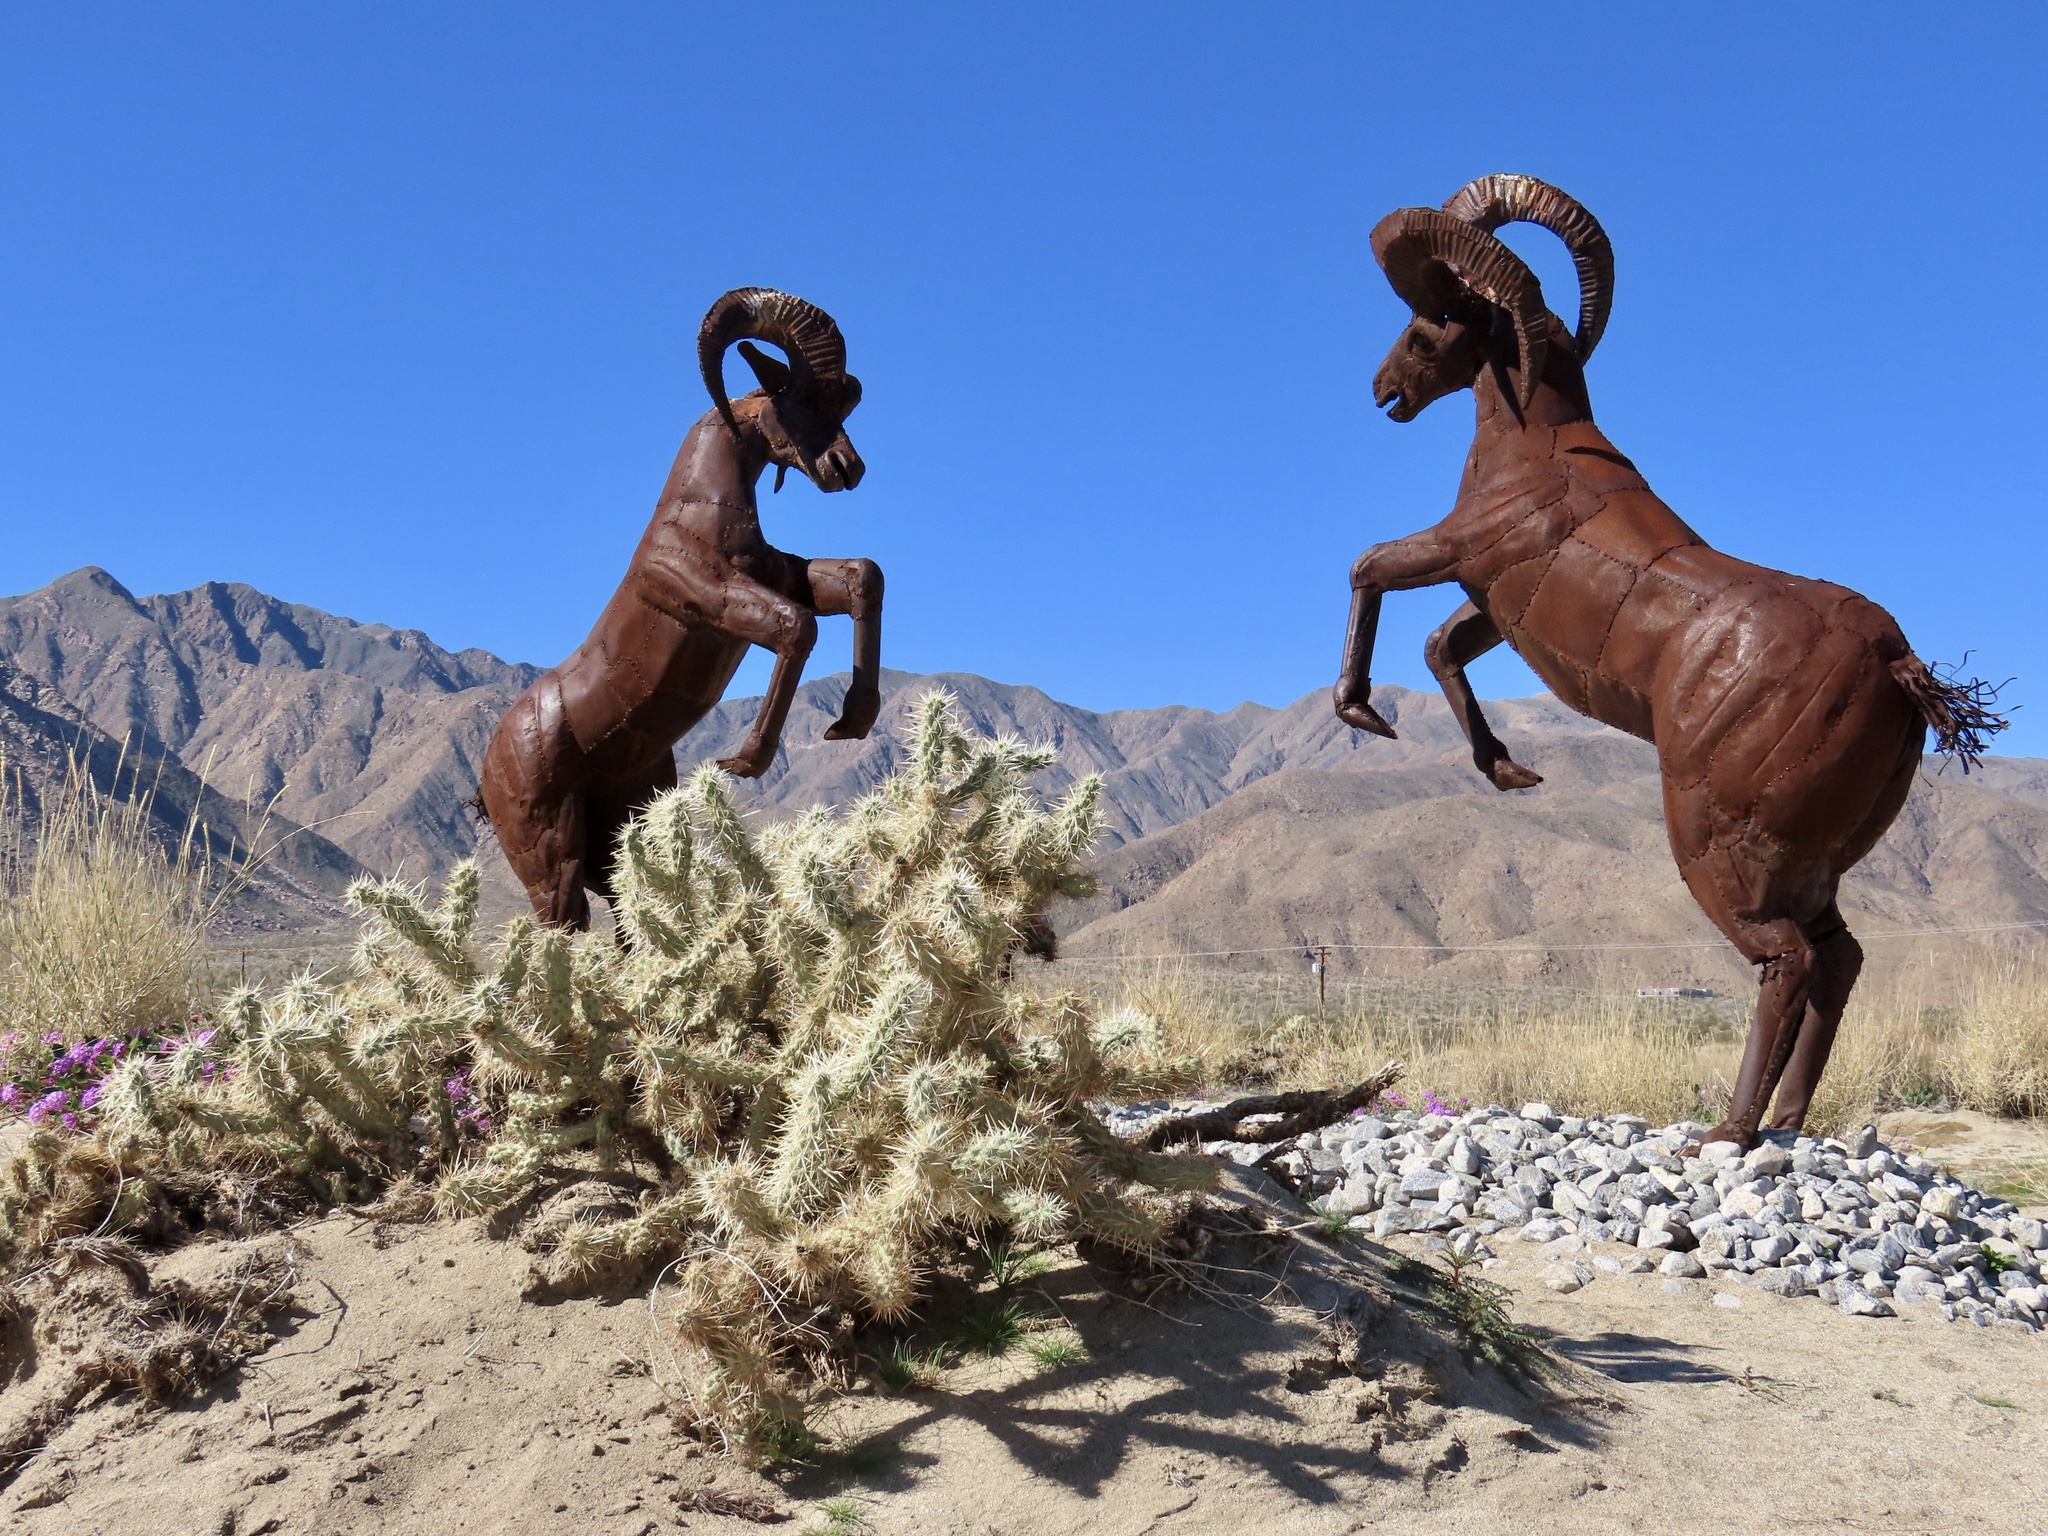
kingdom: Plantae
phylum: Tracheophyta
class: Magnoliopsida
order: Caryophyllales
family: Cactaceae
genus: Cylindropuntia
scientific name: Cylindropuntia echinocarpa
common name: Ground cholla
